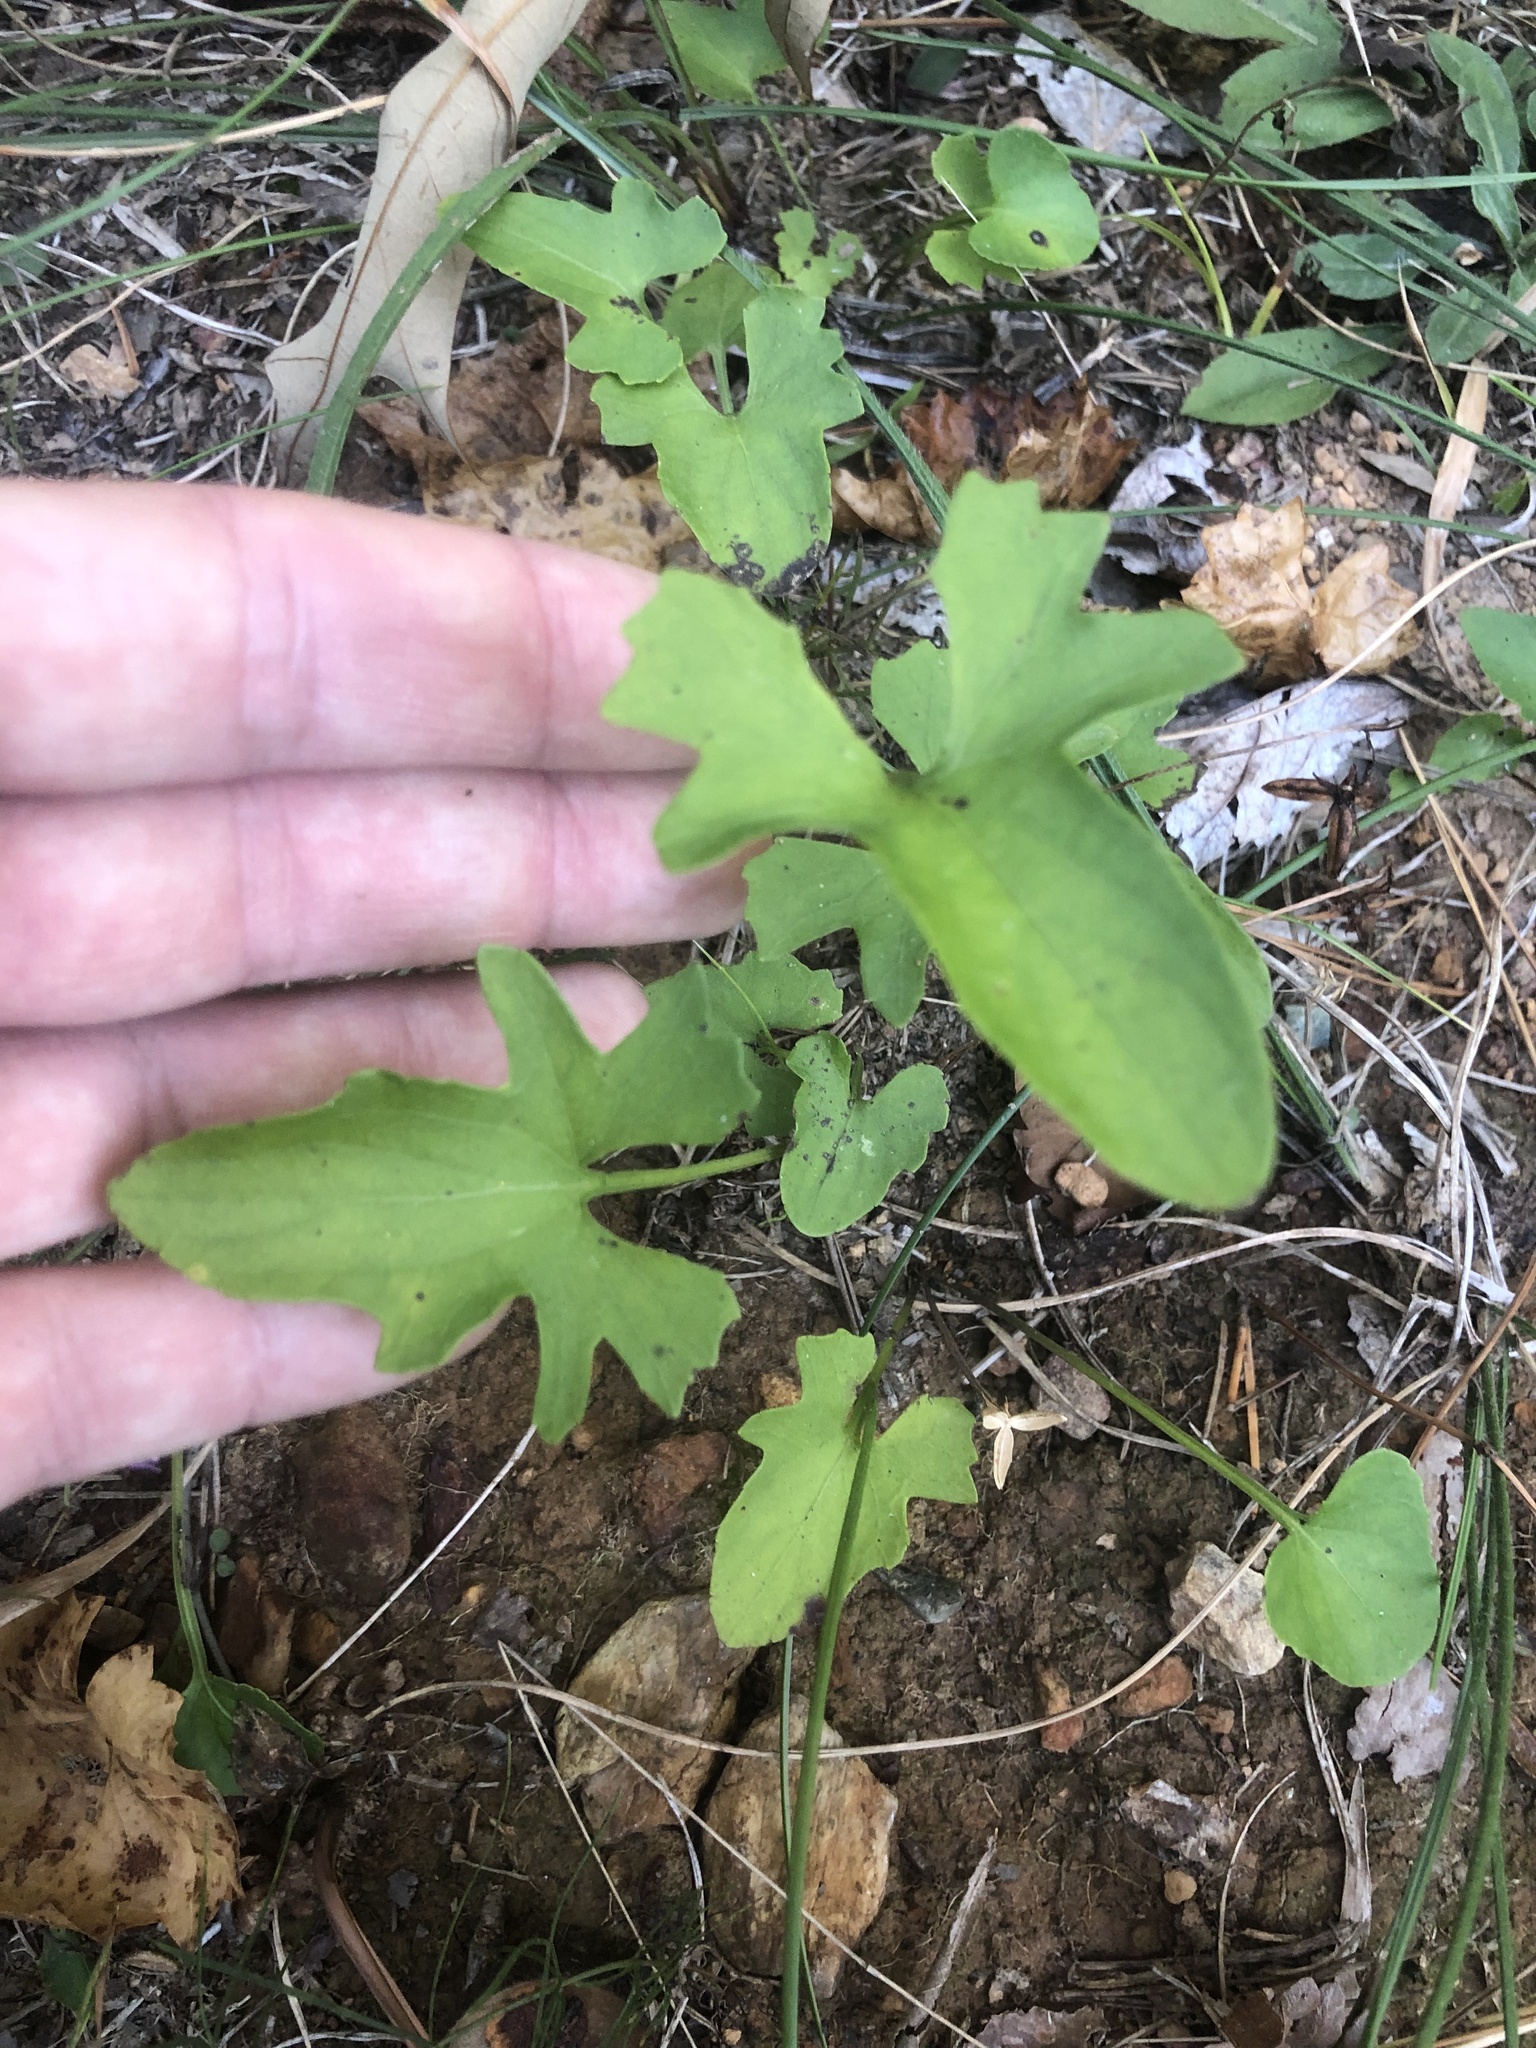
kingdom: Plantae
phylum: Tracheophyta
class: Magnoliopsida
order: Malpighiales
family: Violaceae
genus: Viola
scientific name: Viola emarginata
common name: Triangle-leaved violet
